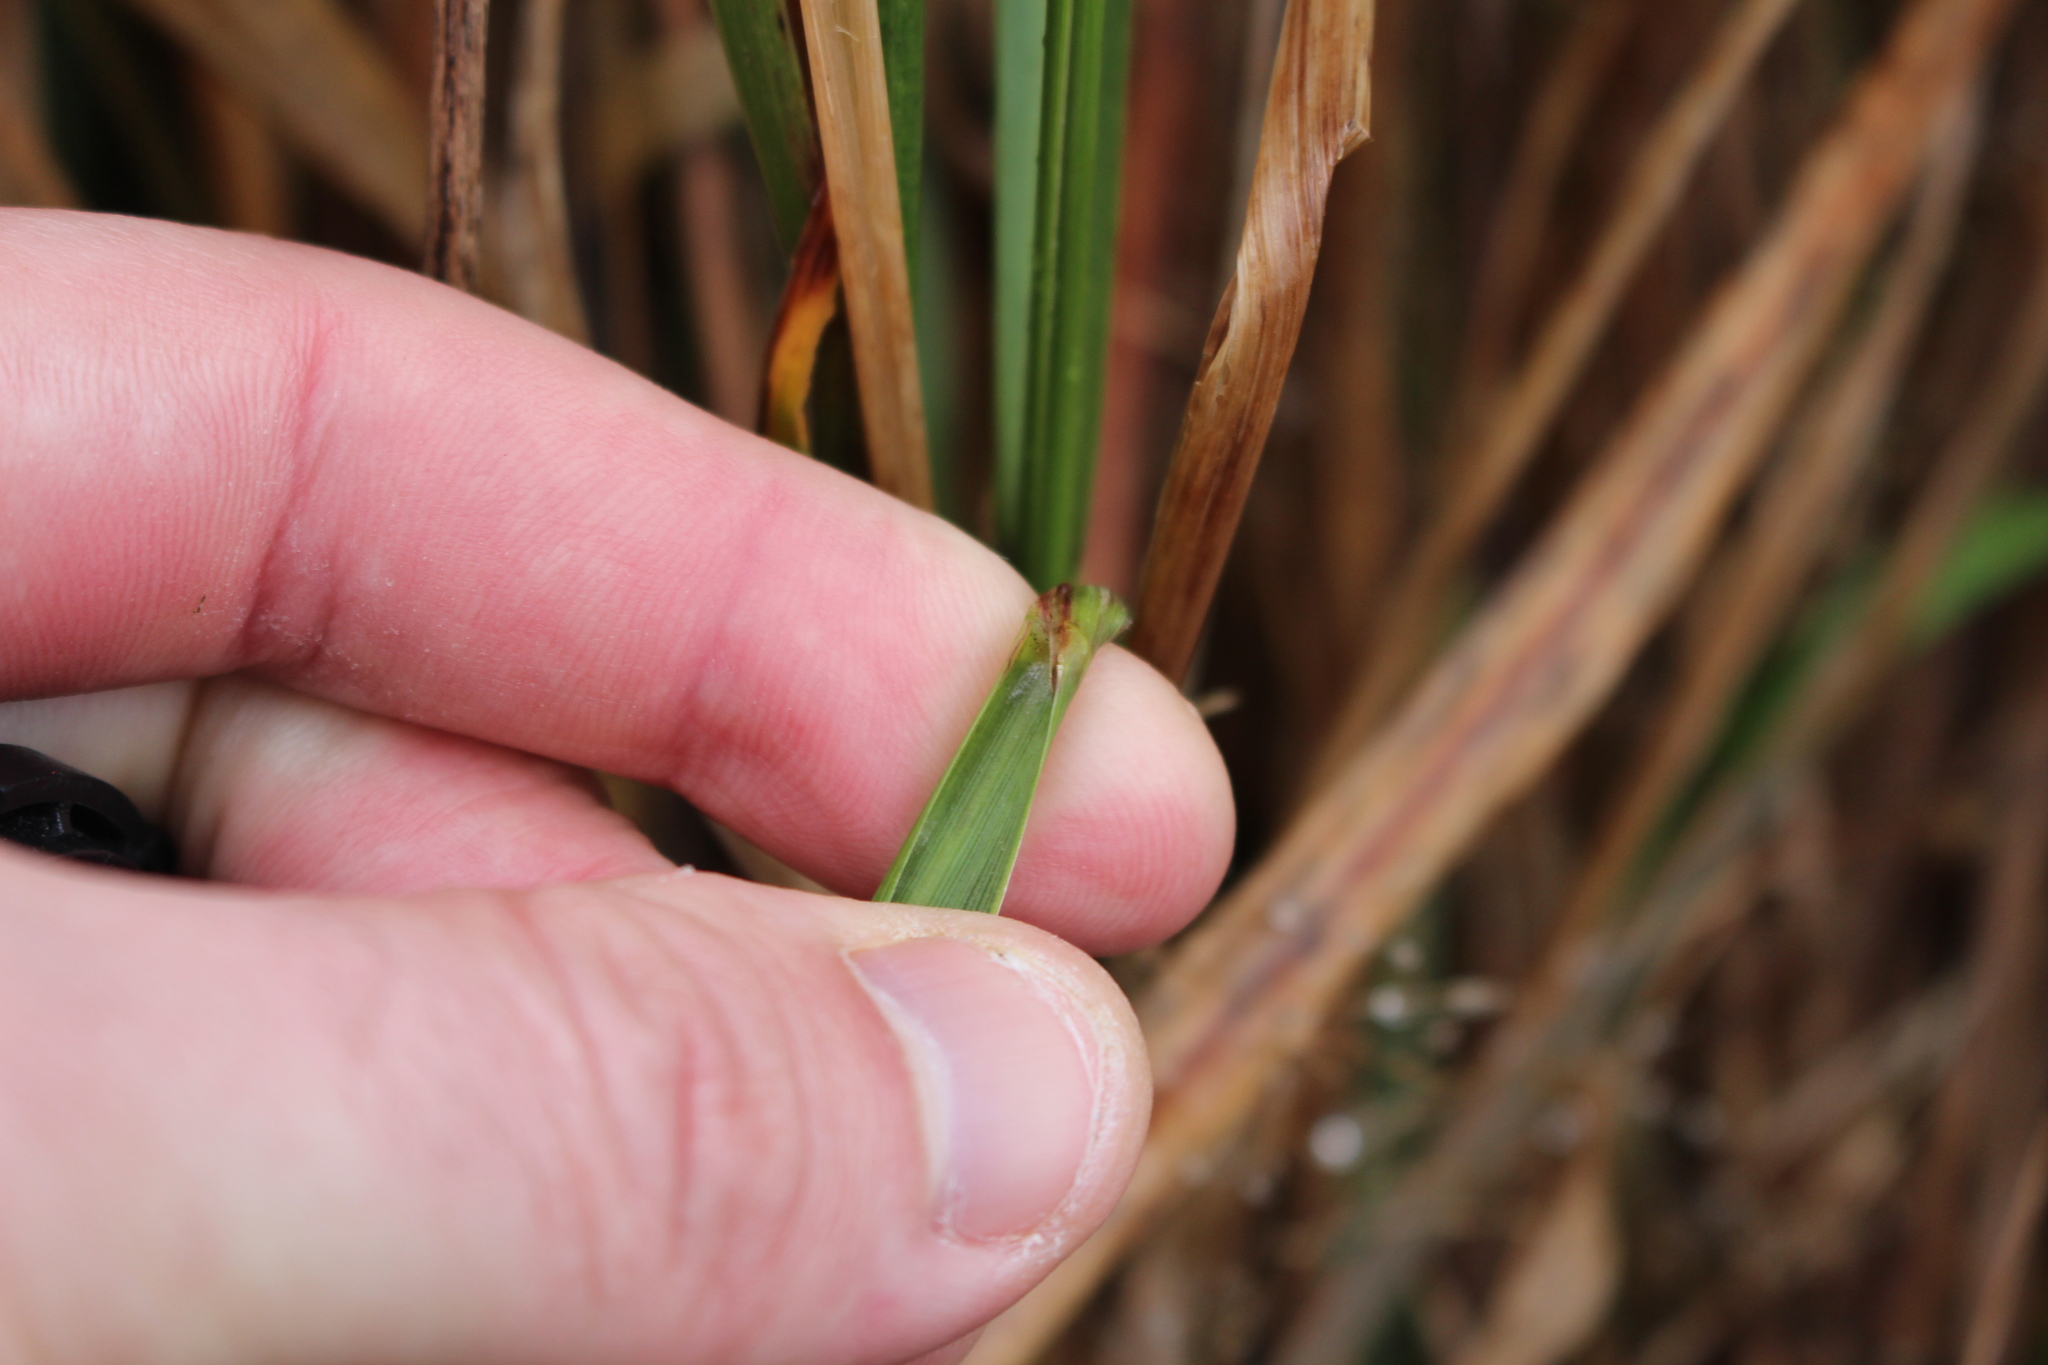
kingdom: Plantae
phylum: Tracheophyta
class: Liliopsida
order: Poales
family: Poaceae
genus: Anthoxanthum
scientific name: Anthoxanthum redolens
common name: Sweet holy grass
